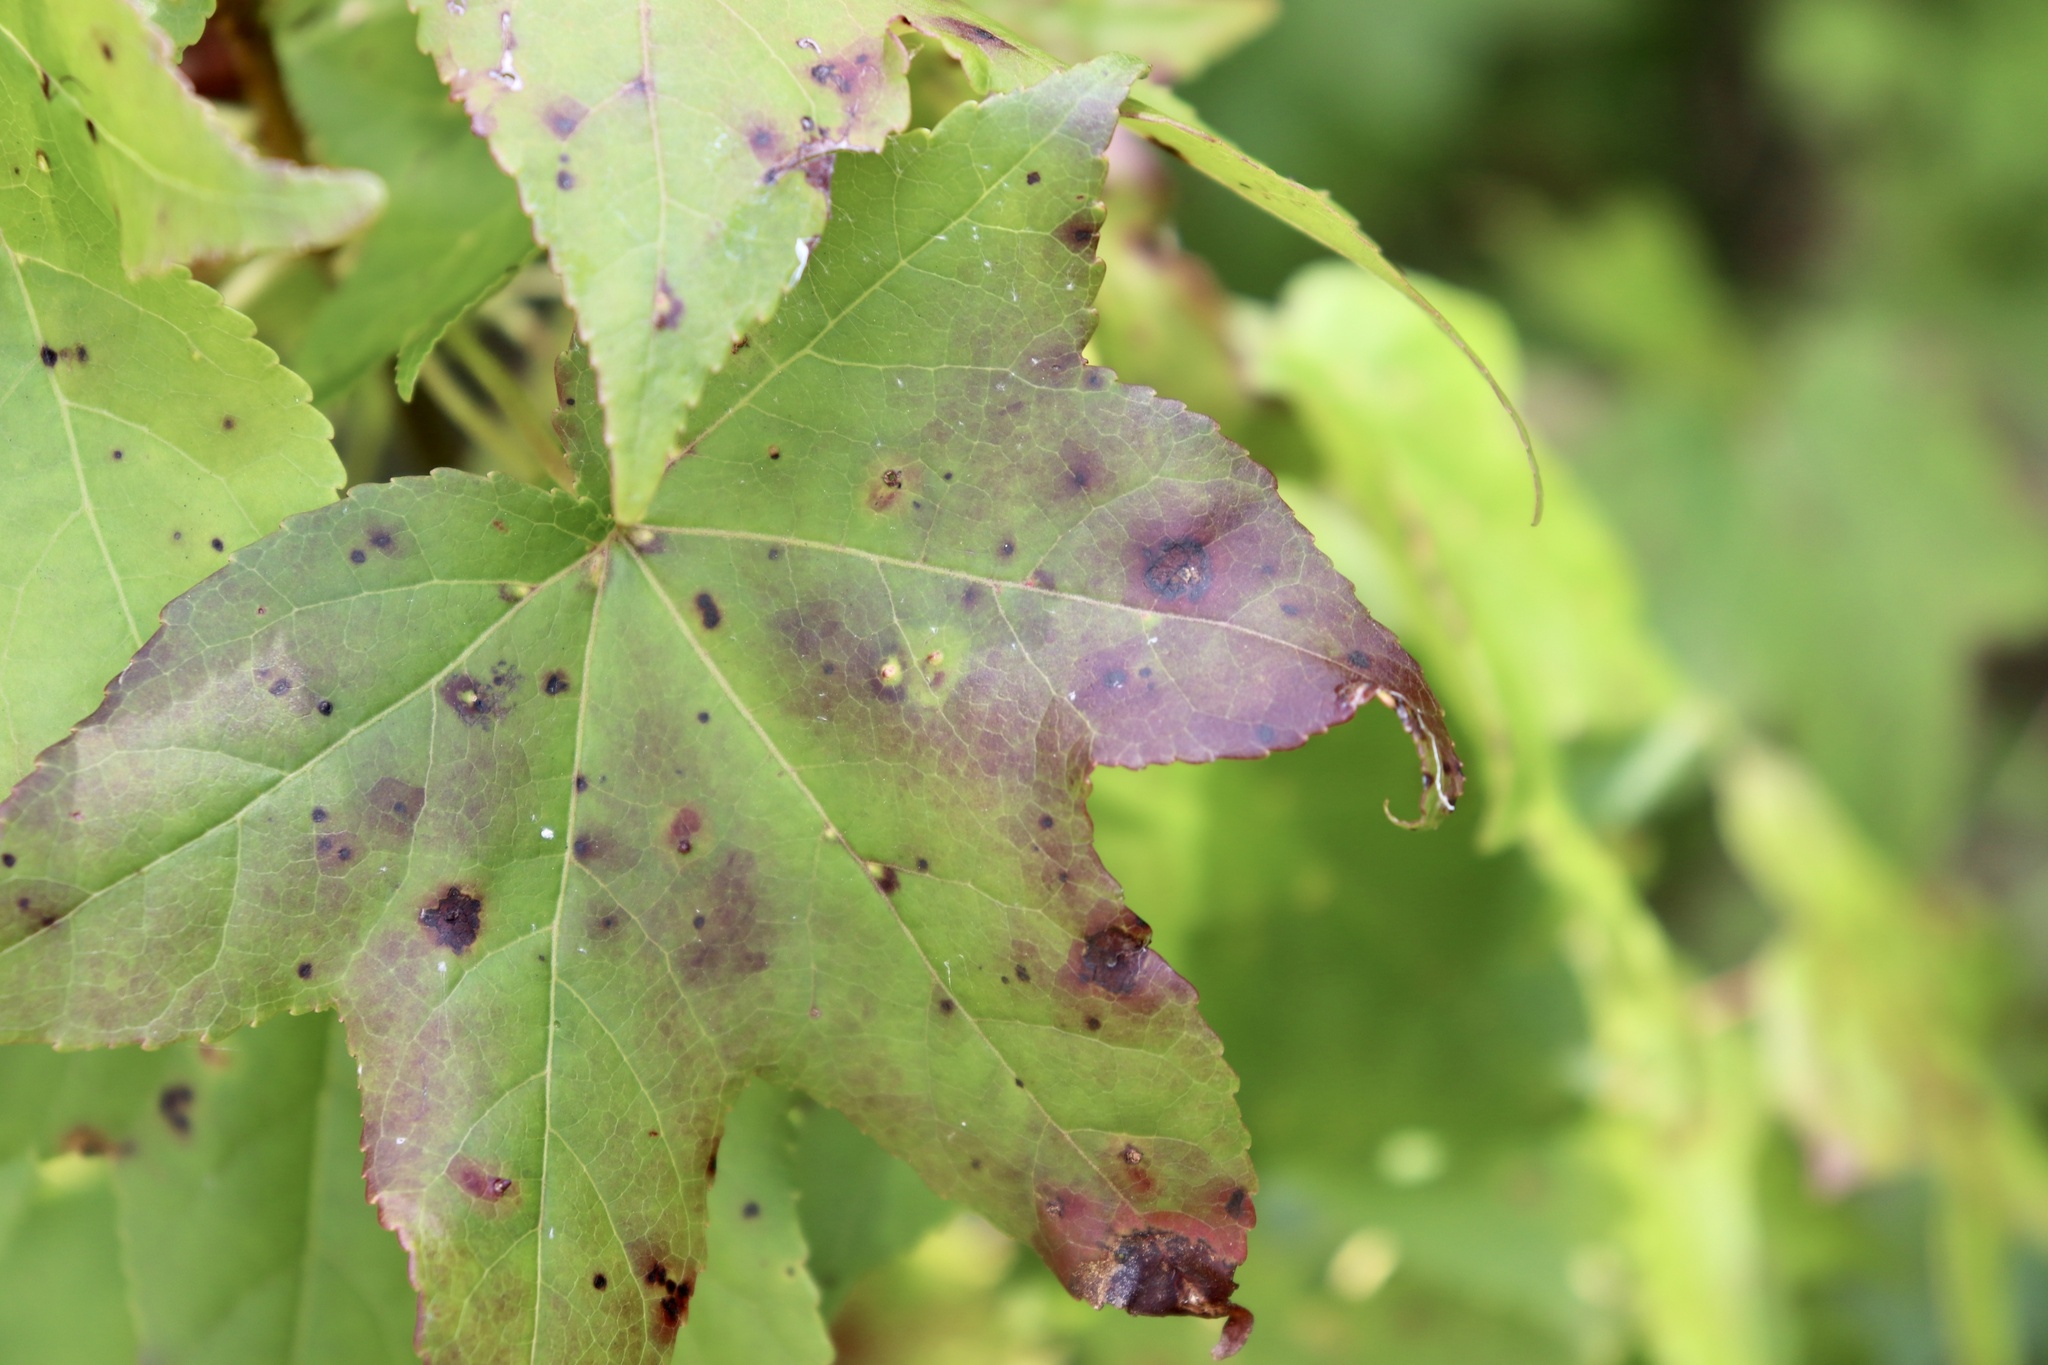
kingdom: Plantae
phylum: Tracheophyta
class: Magnoliopsida
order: Saxifragales
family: Altingiaceae
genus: Liquidambar
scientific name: Liquidambar styraciflua
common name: Sweet gum
